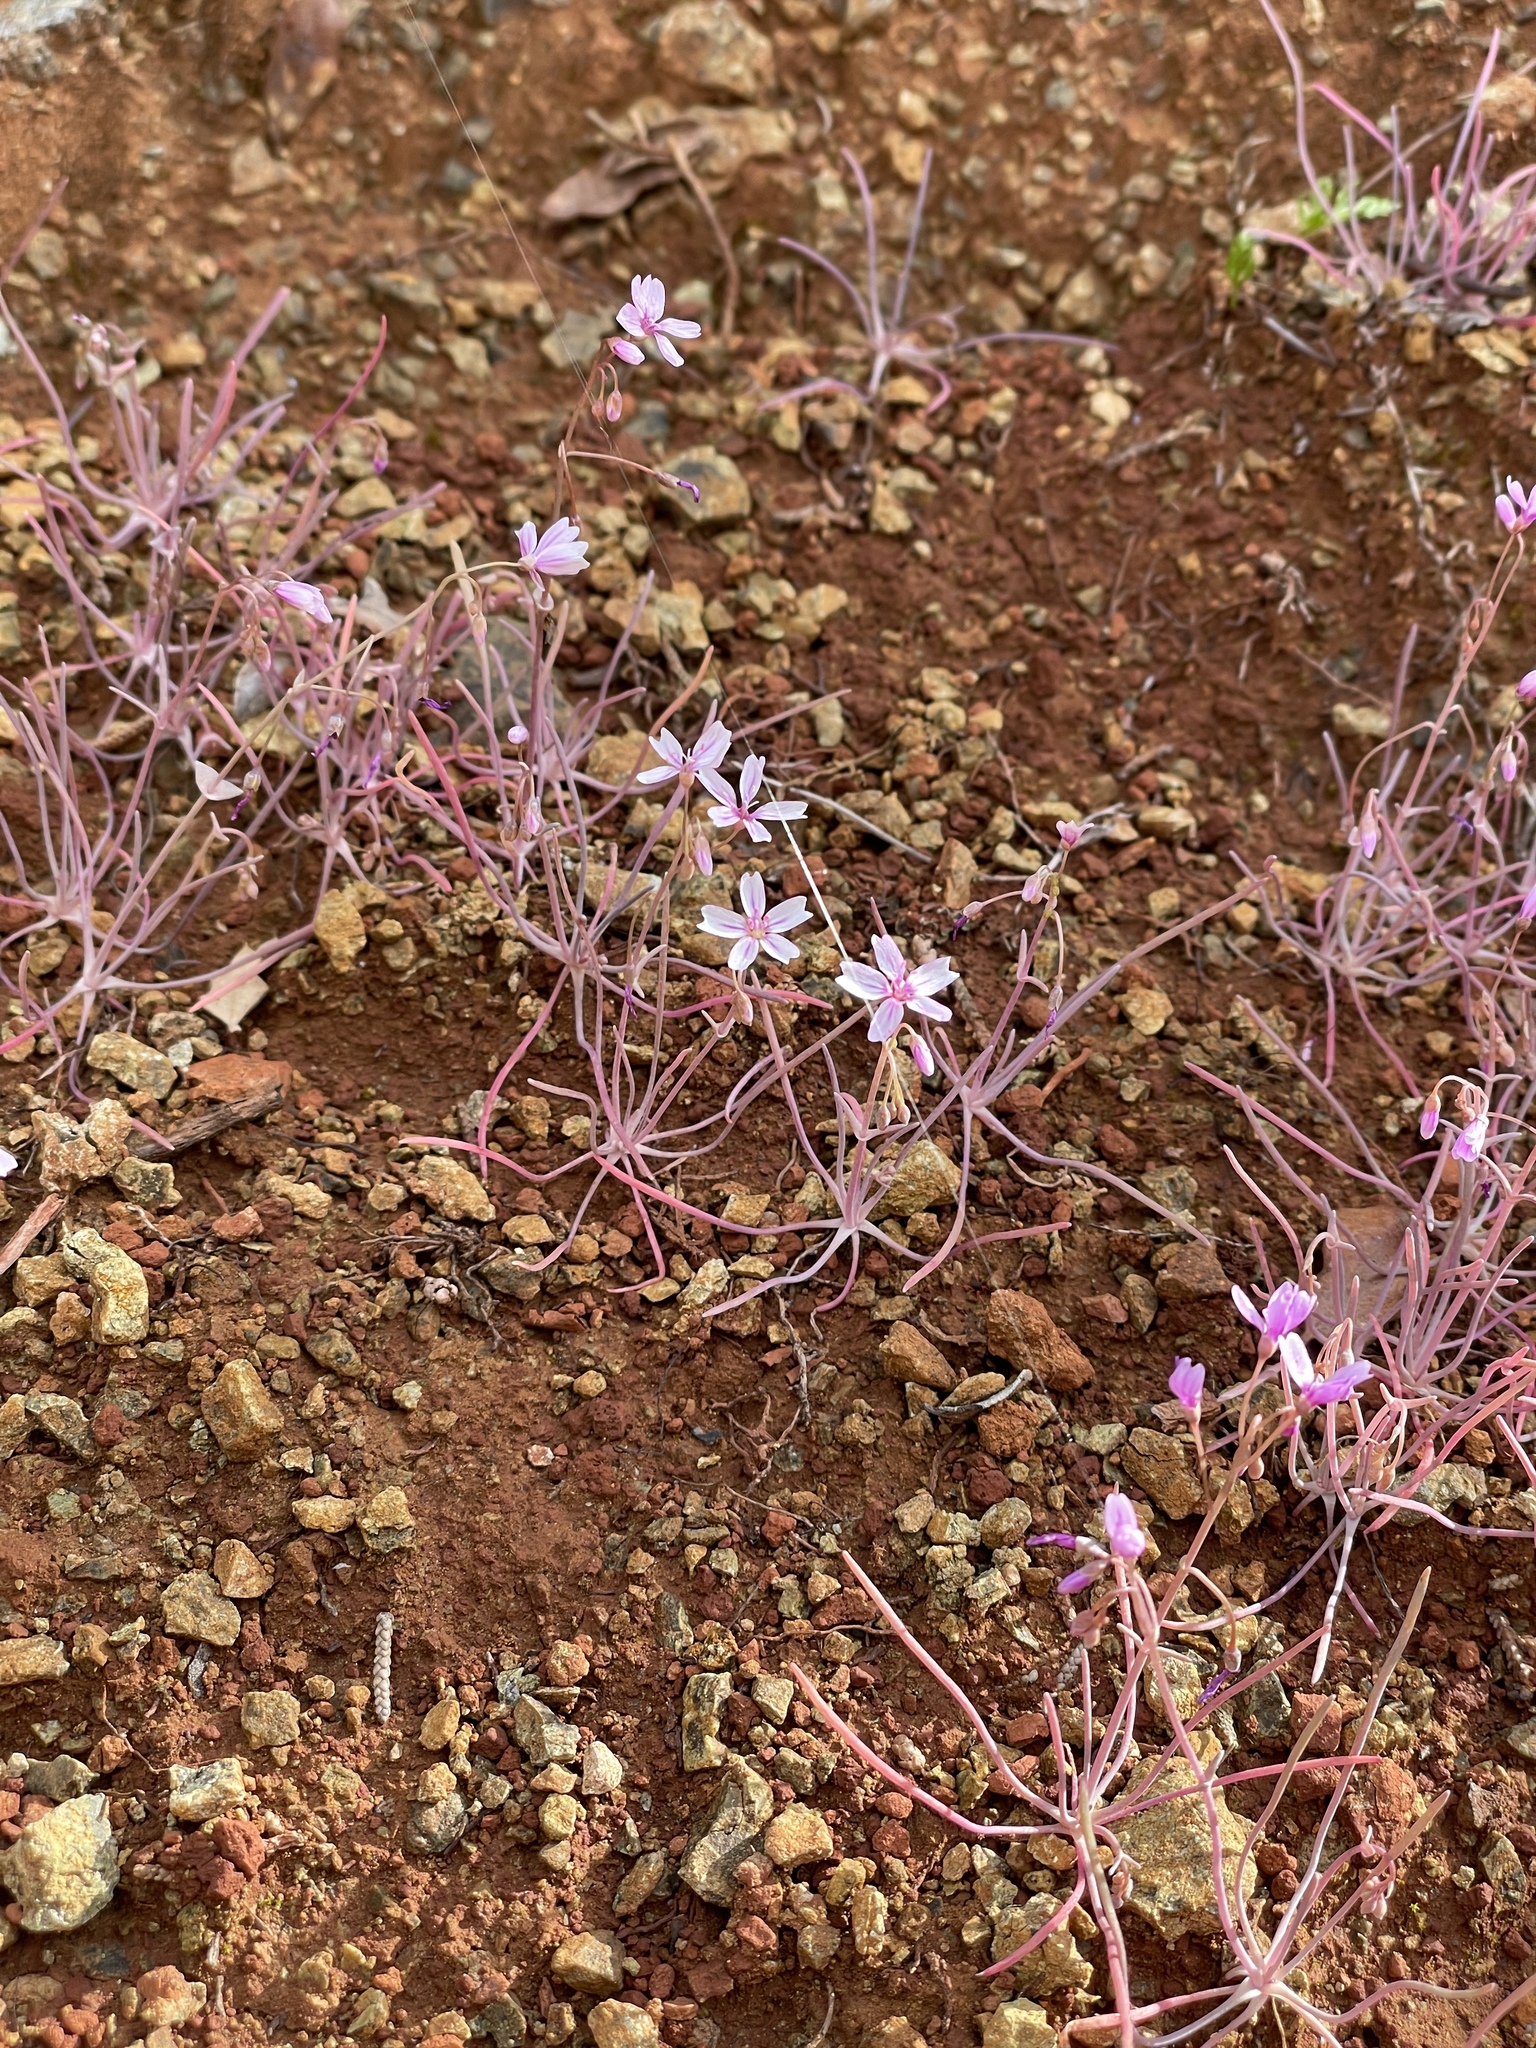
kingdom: Plantae
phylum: Tracheophyta
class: Magnoliopsida
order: Caryophyllales
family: Montiaceae
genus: Claytonia
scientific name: Claytonia gypsophiloides
